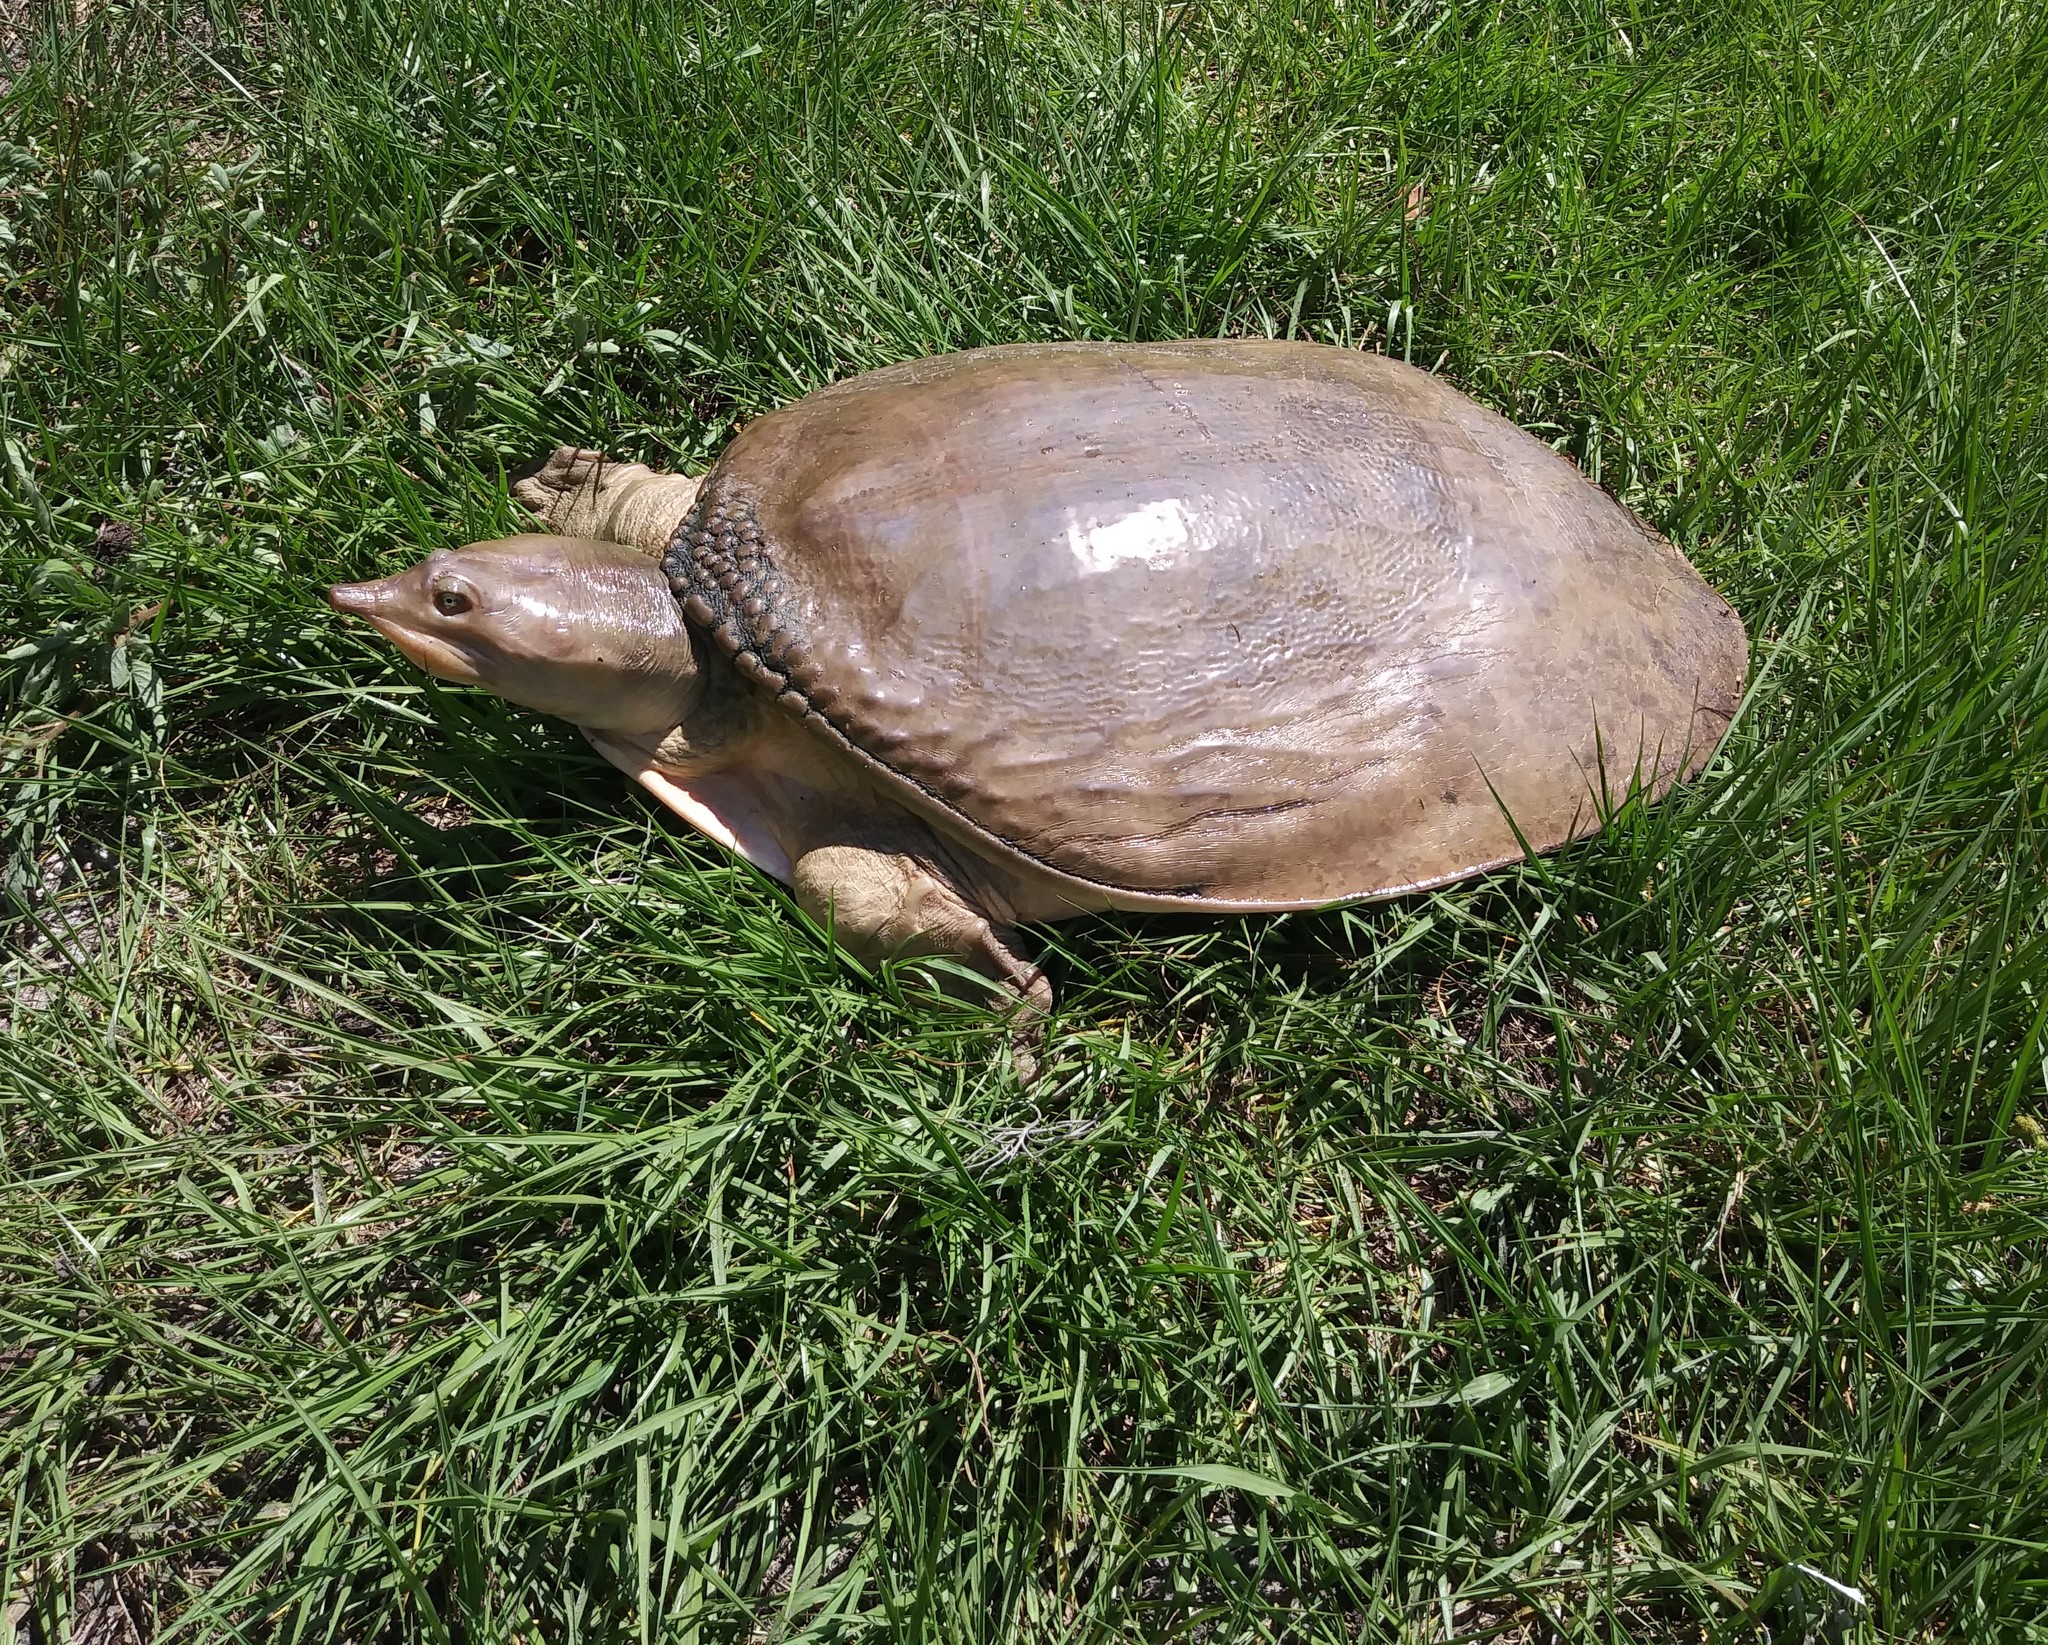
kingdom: Animalia
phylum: Chordata
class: Testudines
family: Trionychidae
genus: Apalone
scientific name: Apalone ferox
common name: Florida softshell turtle
